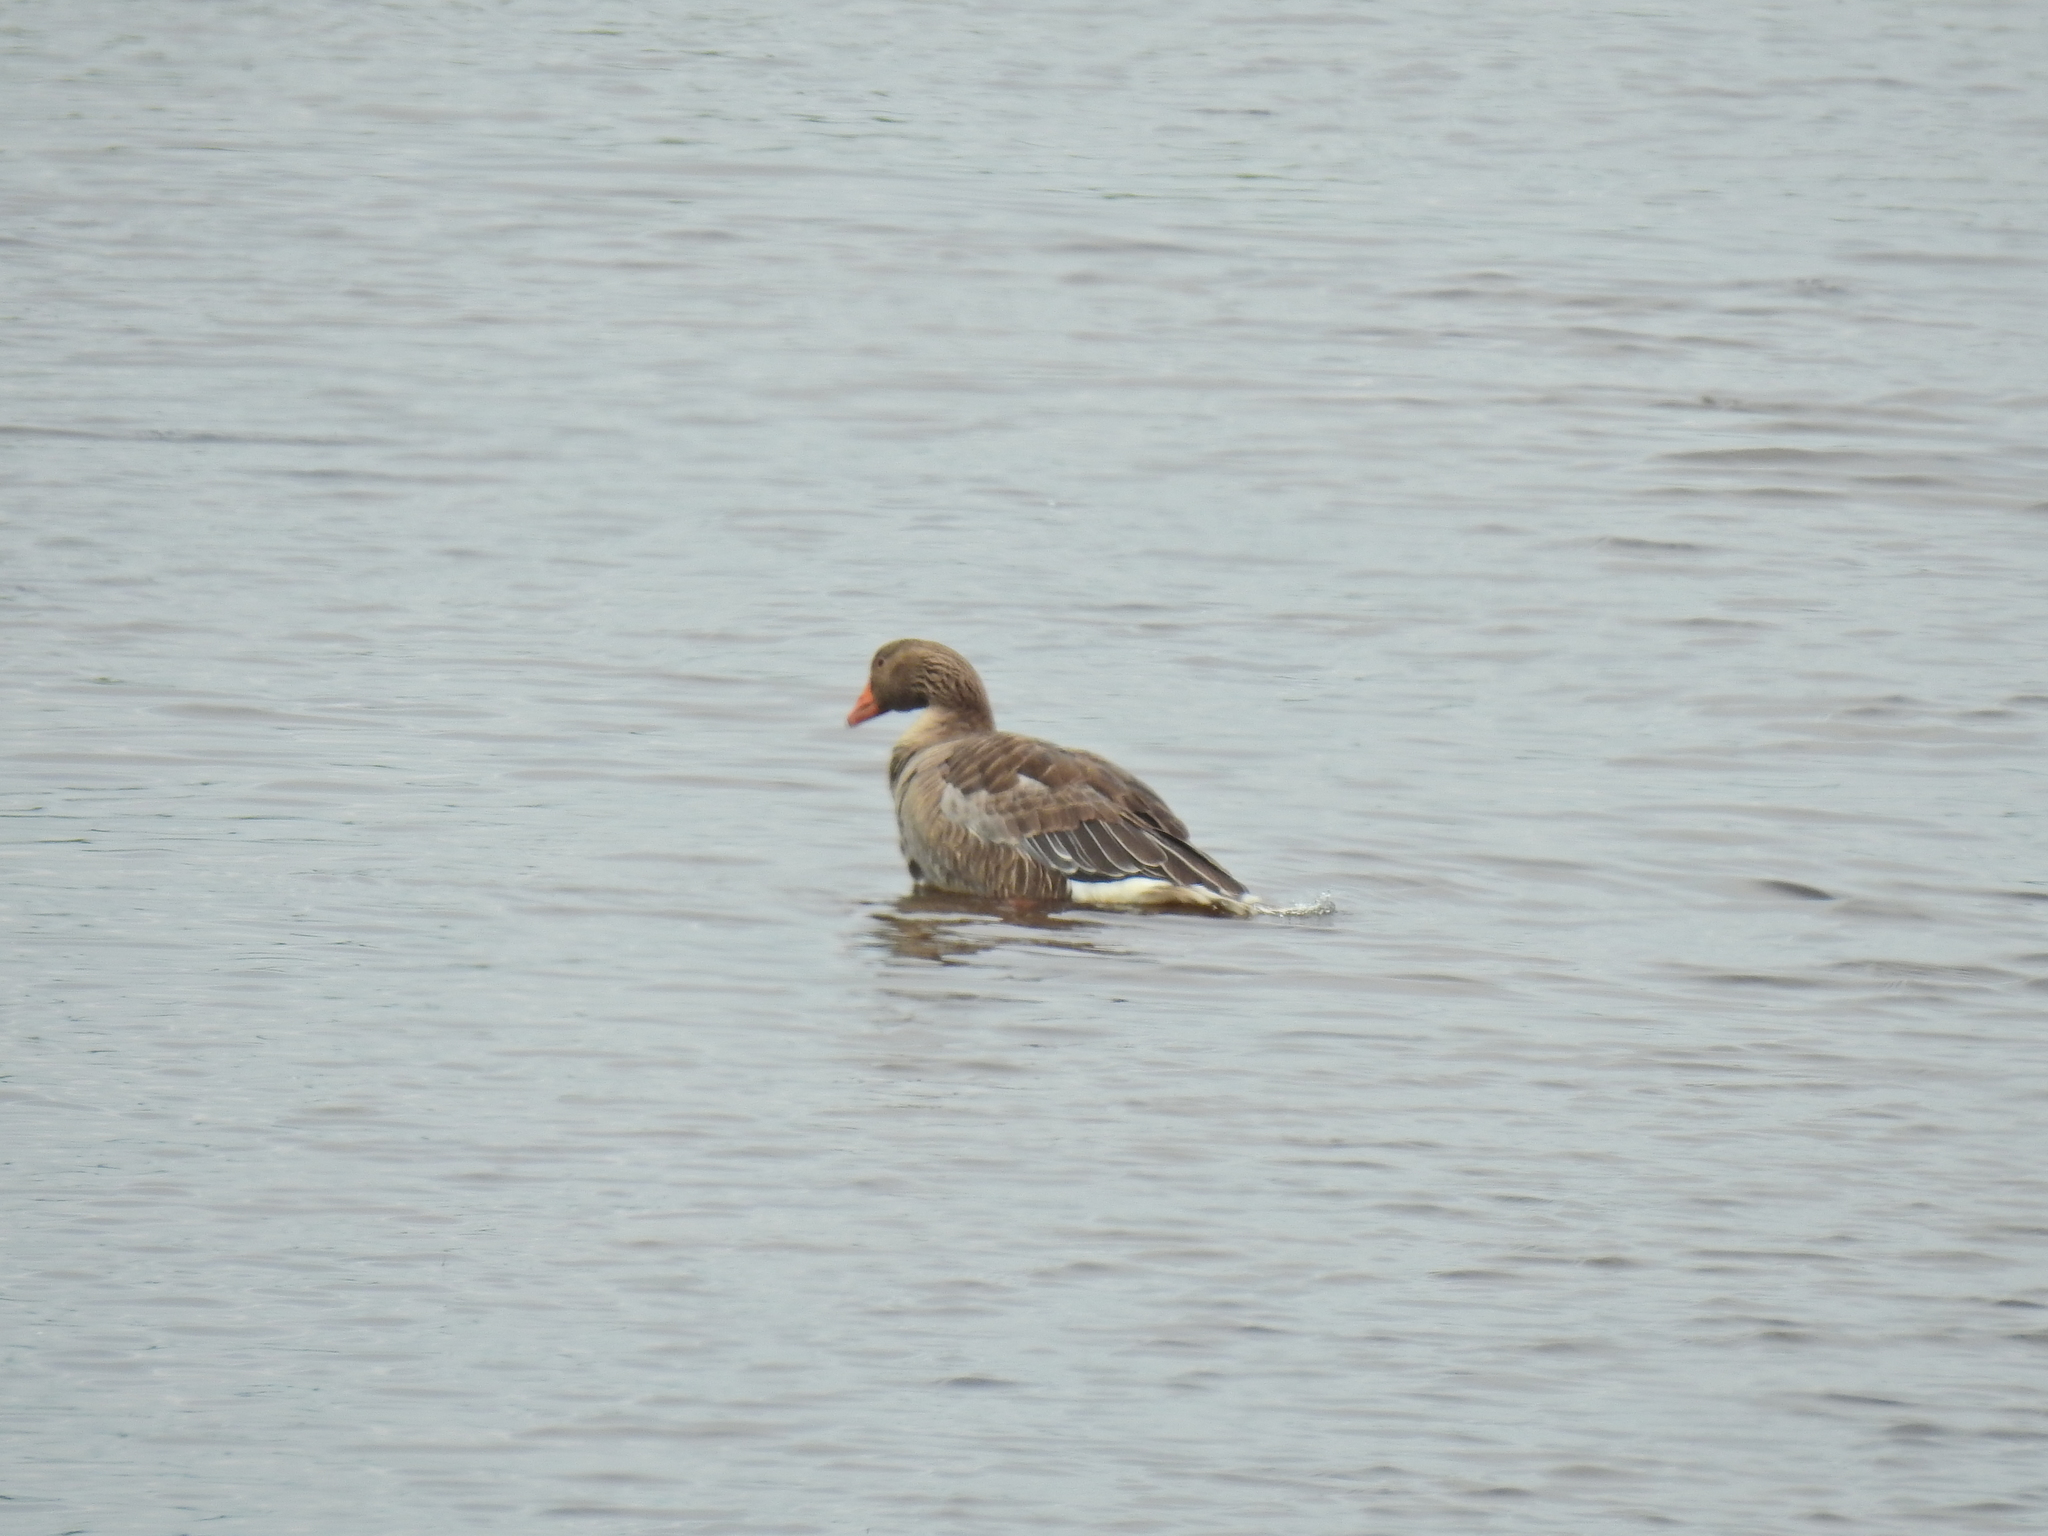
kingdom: Animalia
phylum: Chordata
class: Aves
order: Anseriformes
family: Anatidae
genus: Anser
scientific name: Anser anser
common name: Greylag goose
